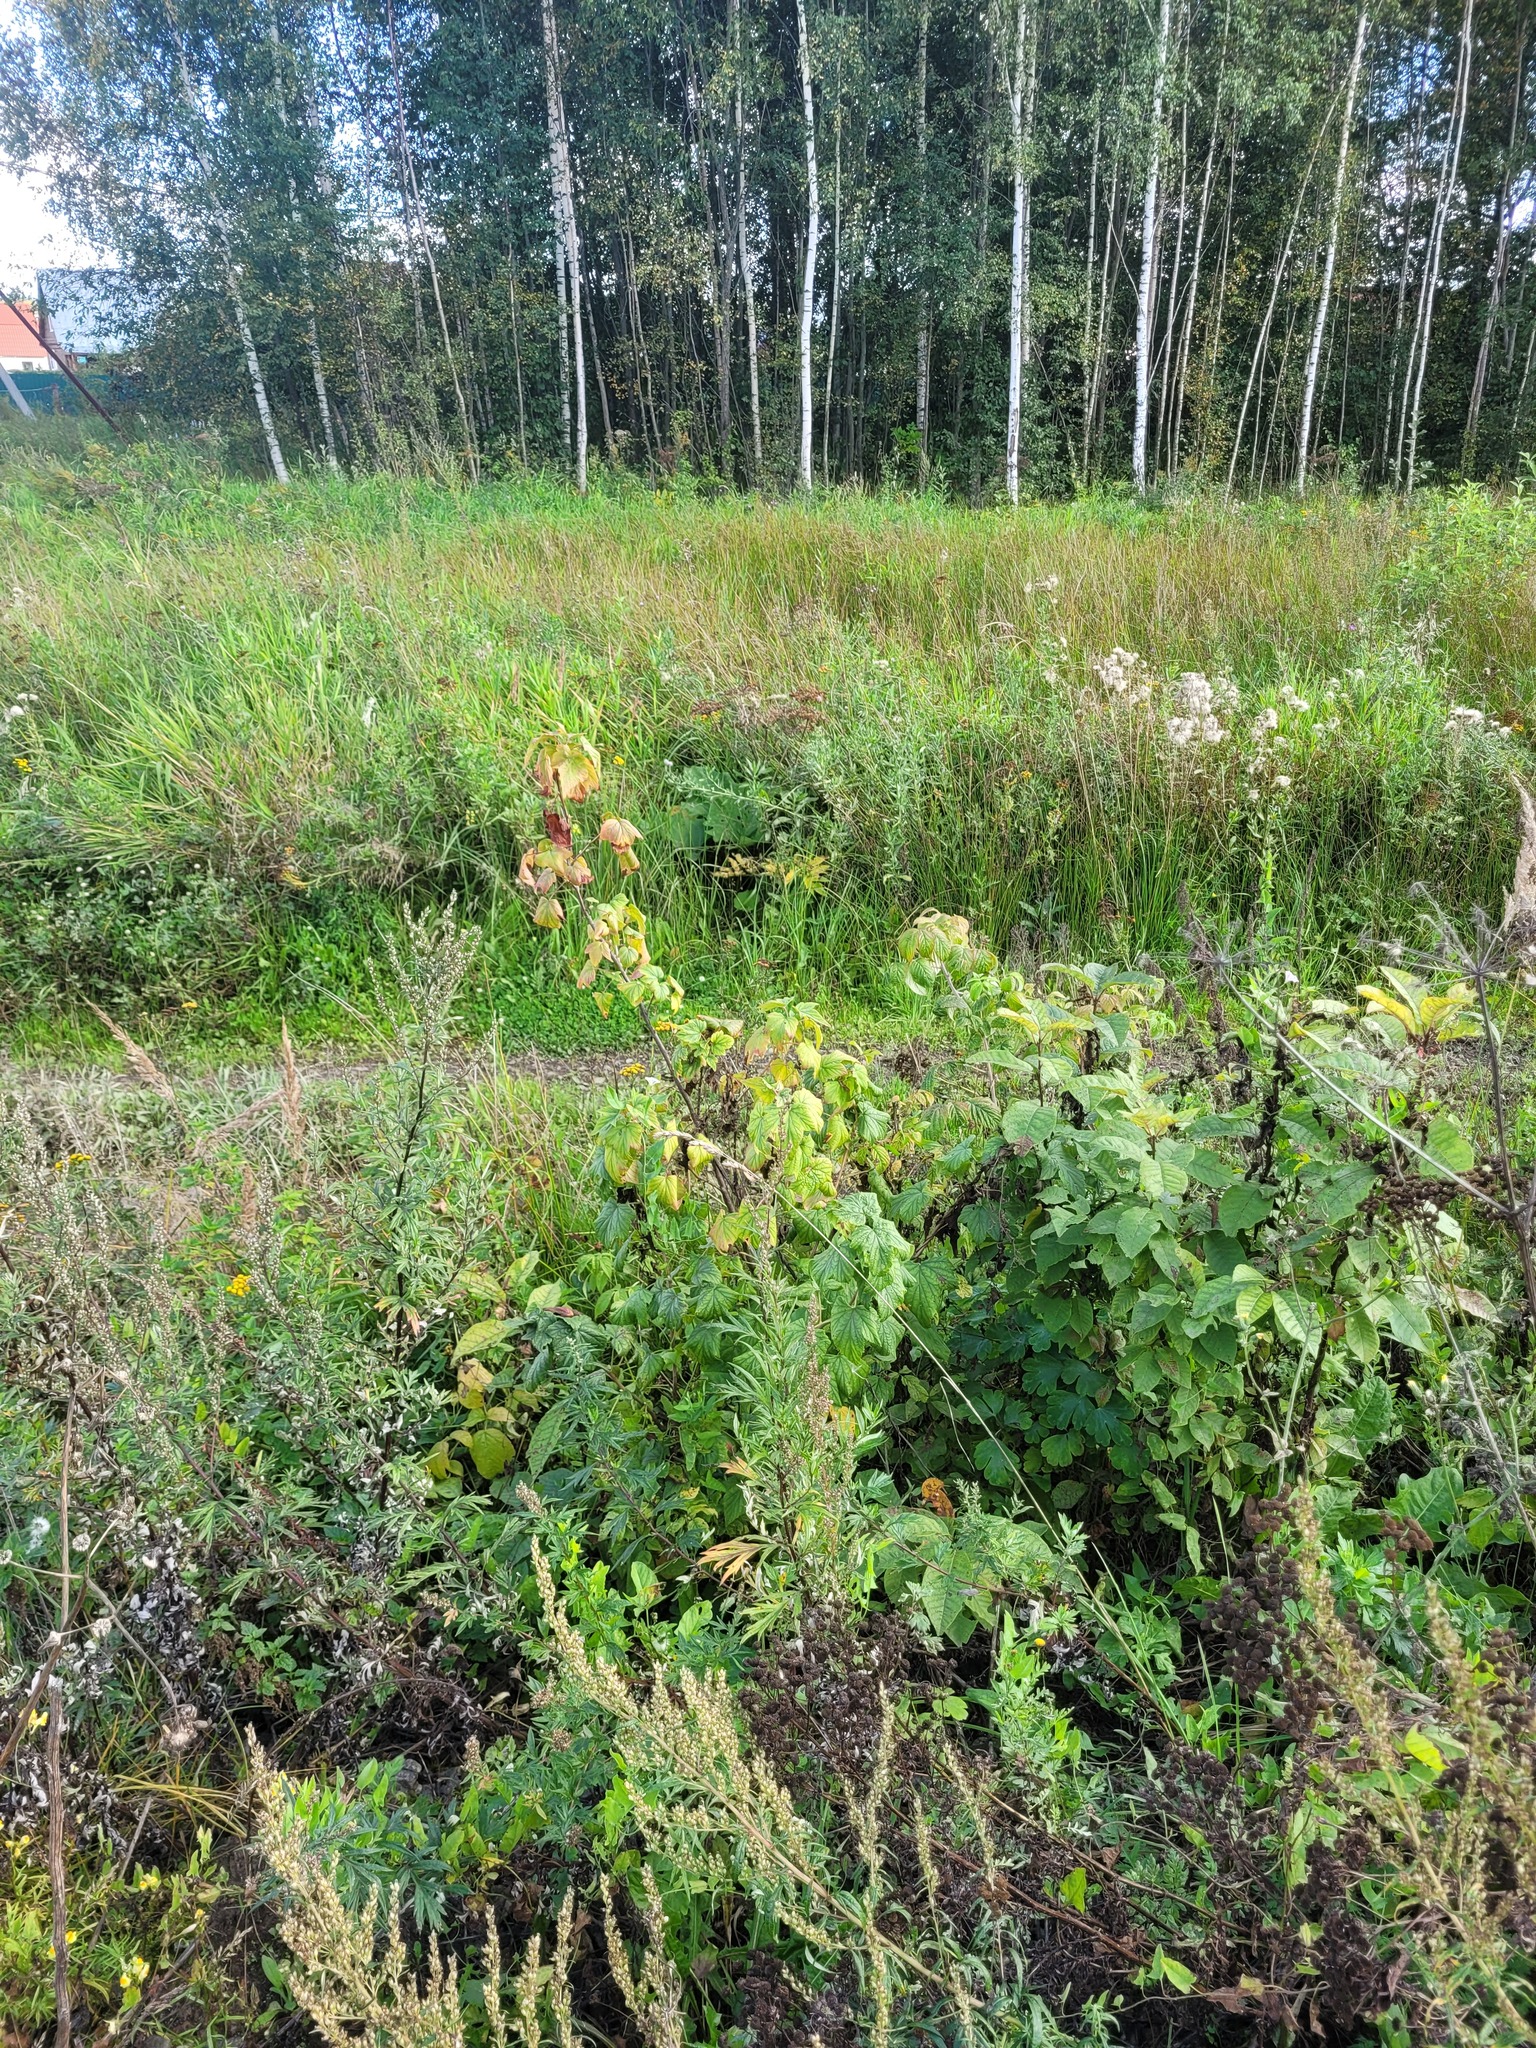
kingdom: Plantae
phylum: Tracheophyta
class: Magnoliopsida
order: Saxifragales
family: Grossulariaceae
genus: Ribes
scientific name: Ribes nigrum
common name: Black currant
